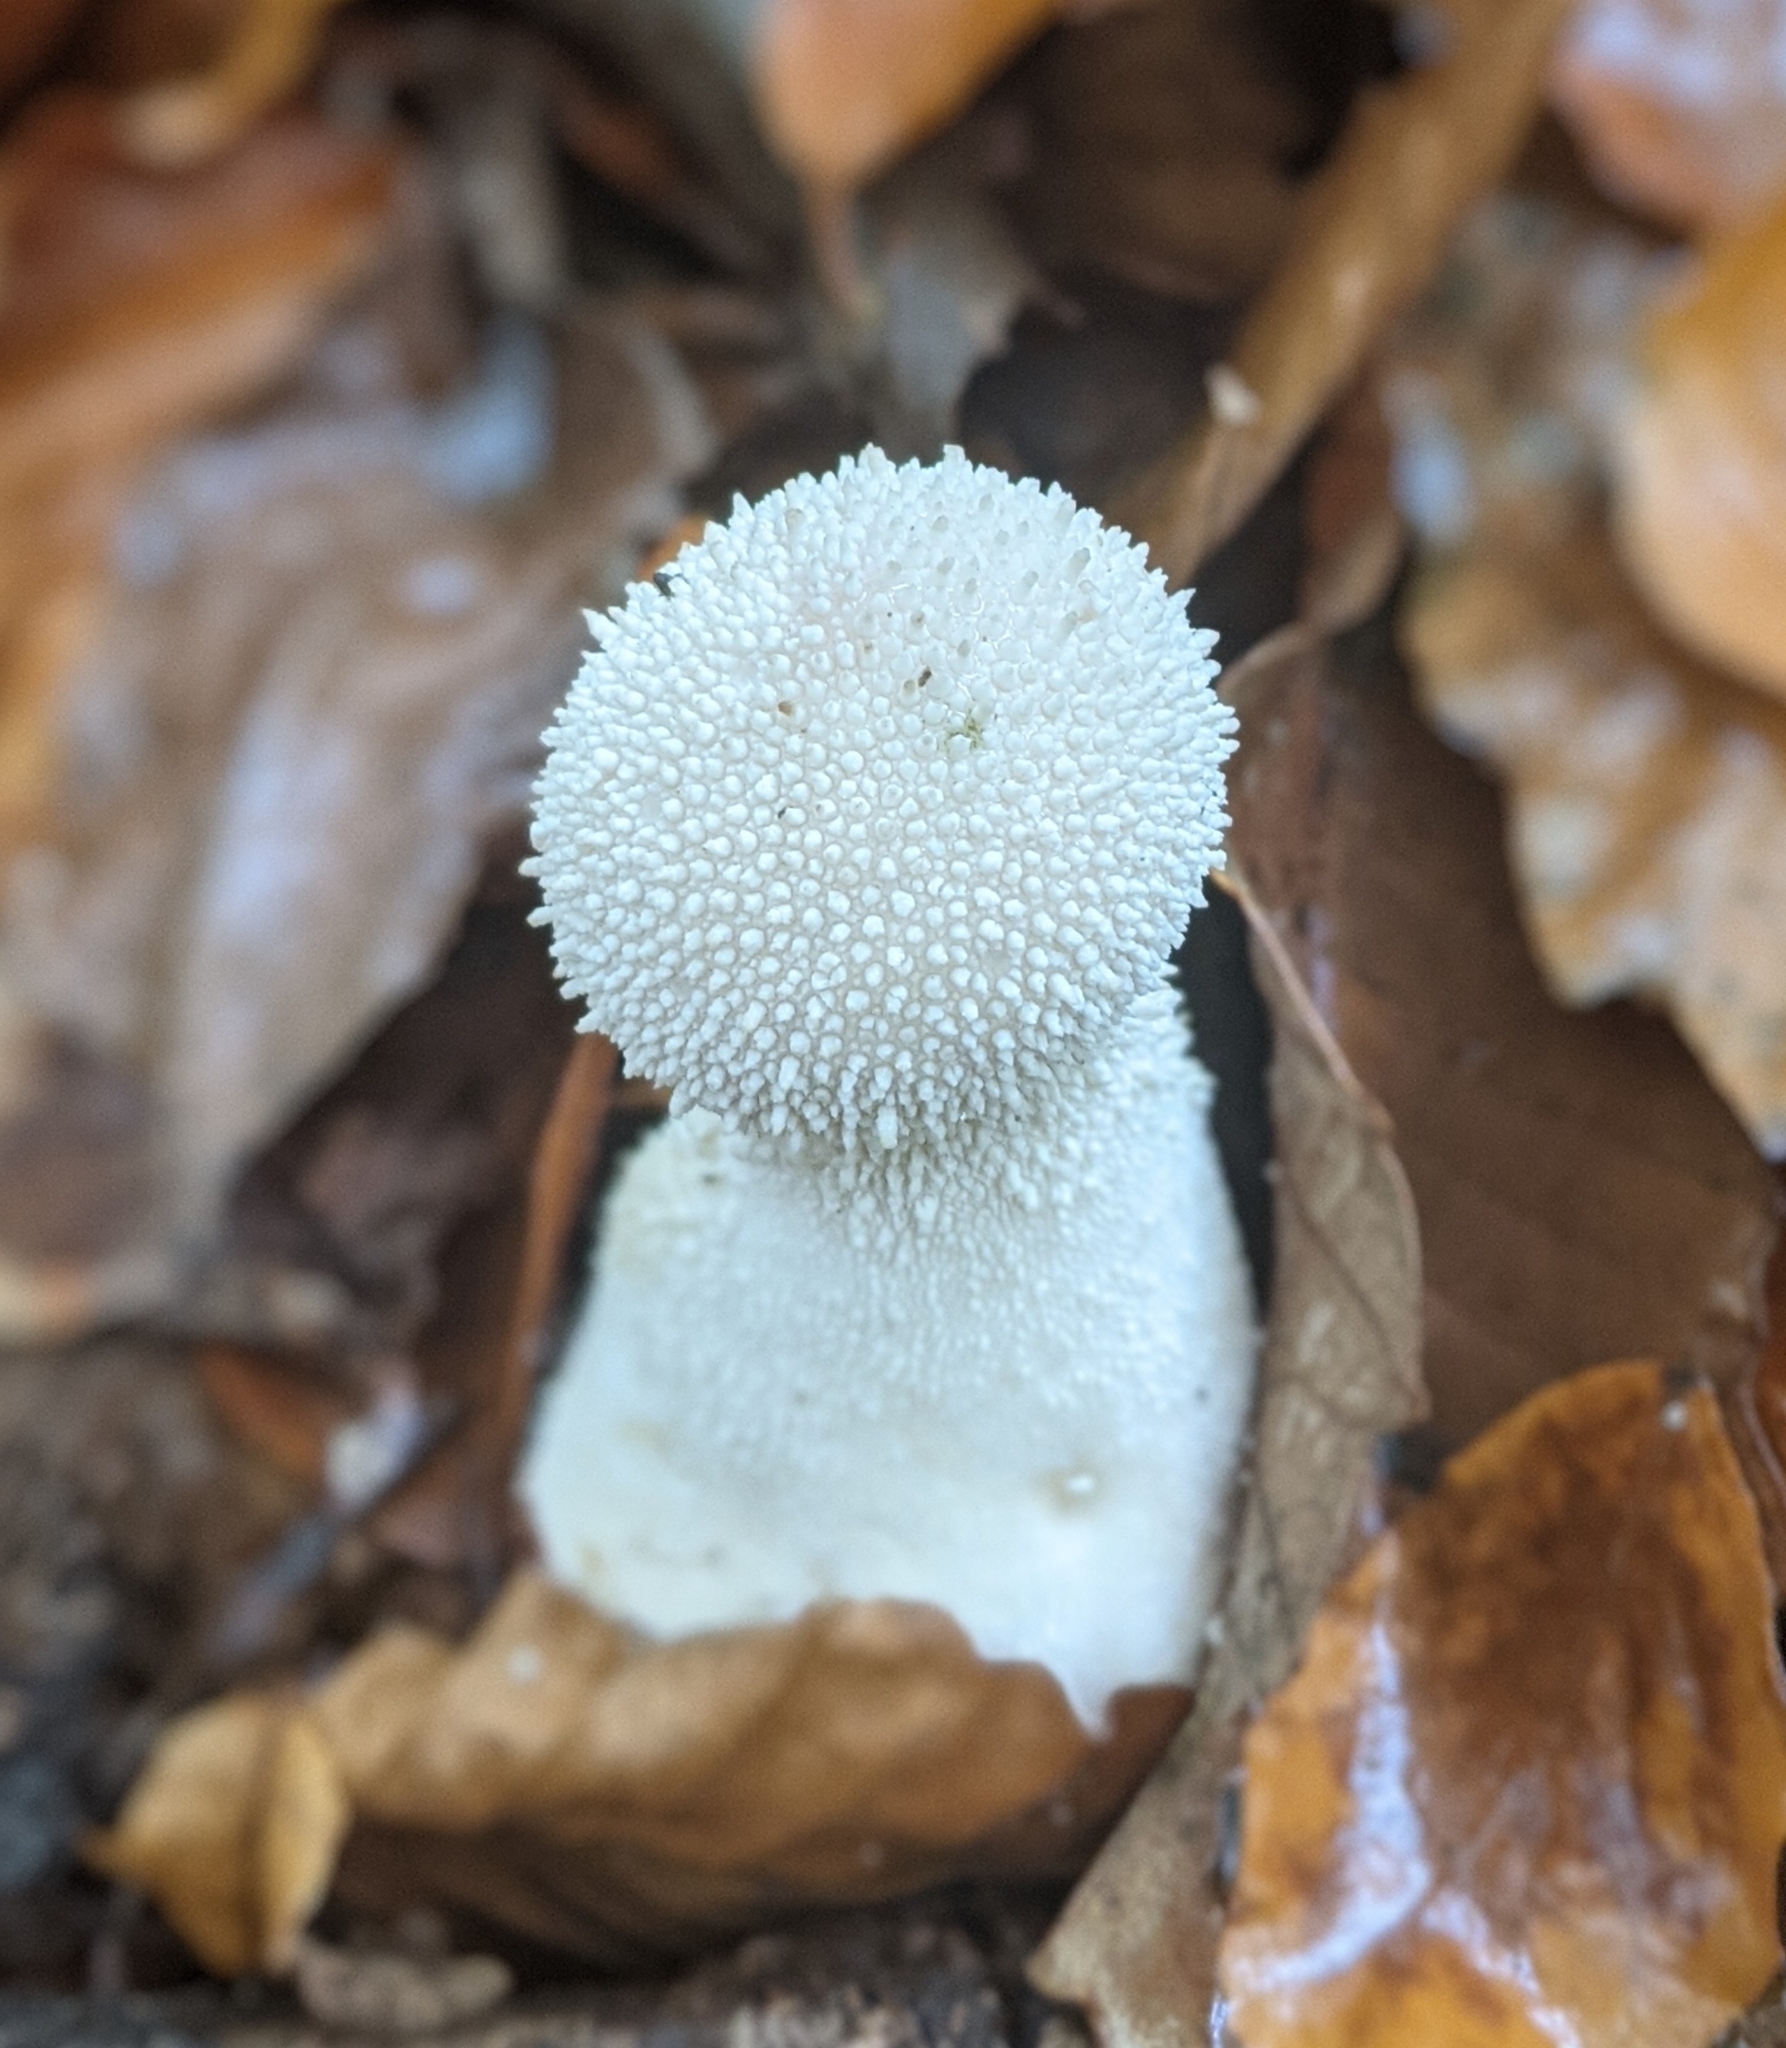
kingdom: Fungi
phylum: Basidiomycota
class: Agaricomycetes
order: Agaricales
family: Lycoperdaceae
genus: Lycoperdon
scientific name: Lycoperdon perlatum
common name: Common puffball
